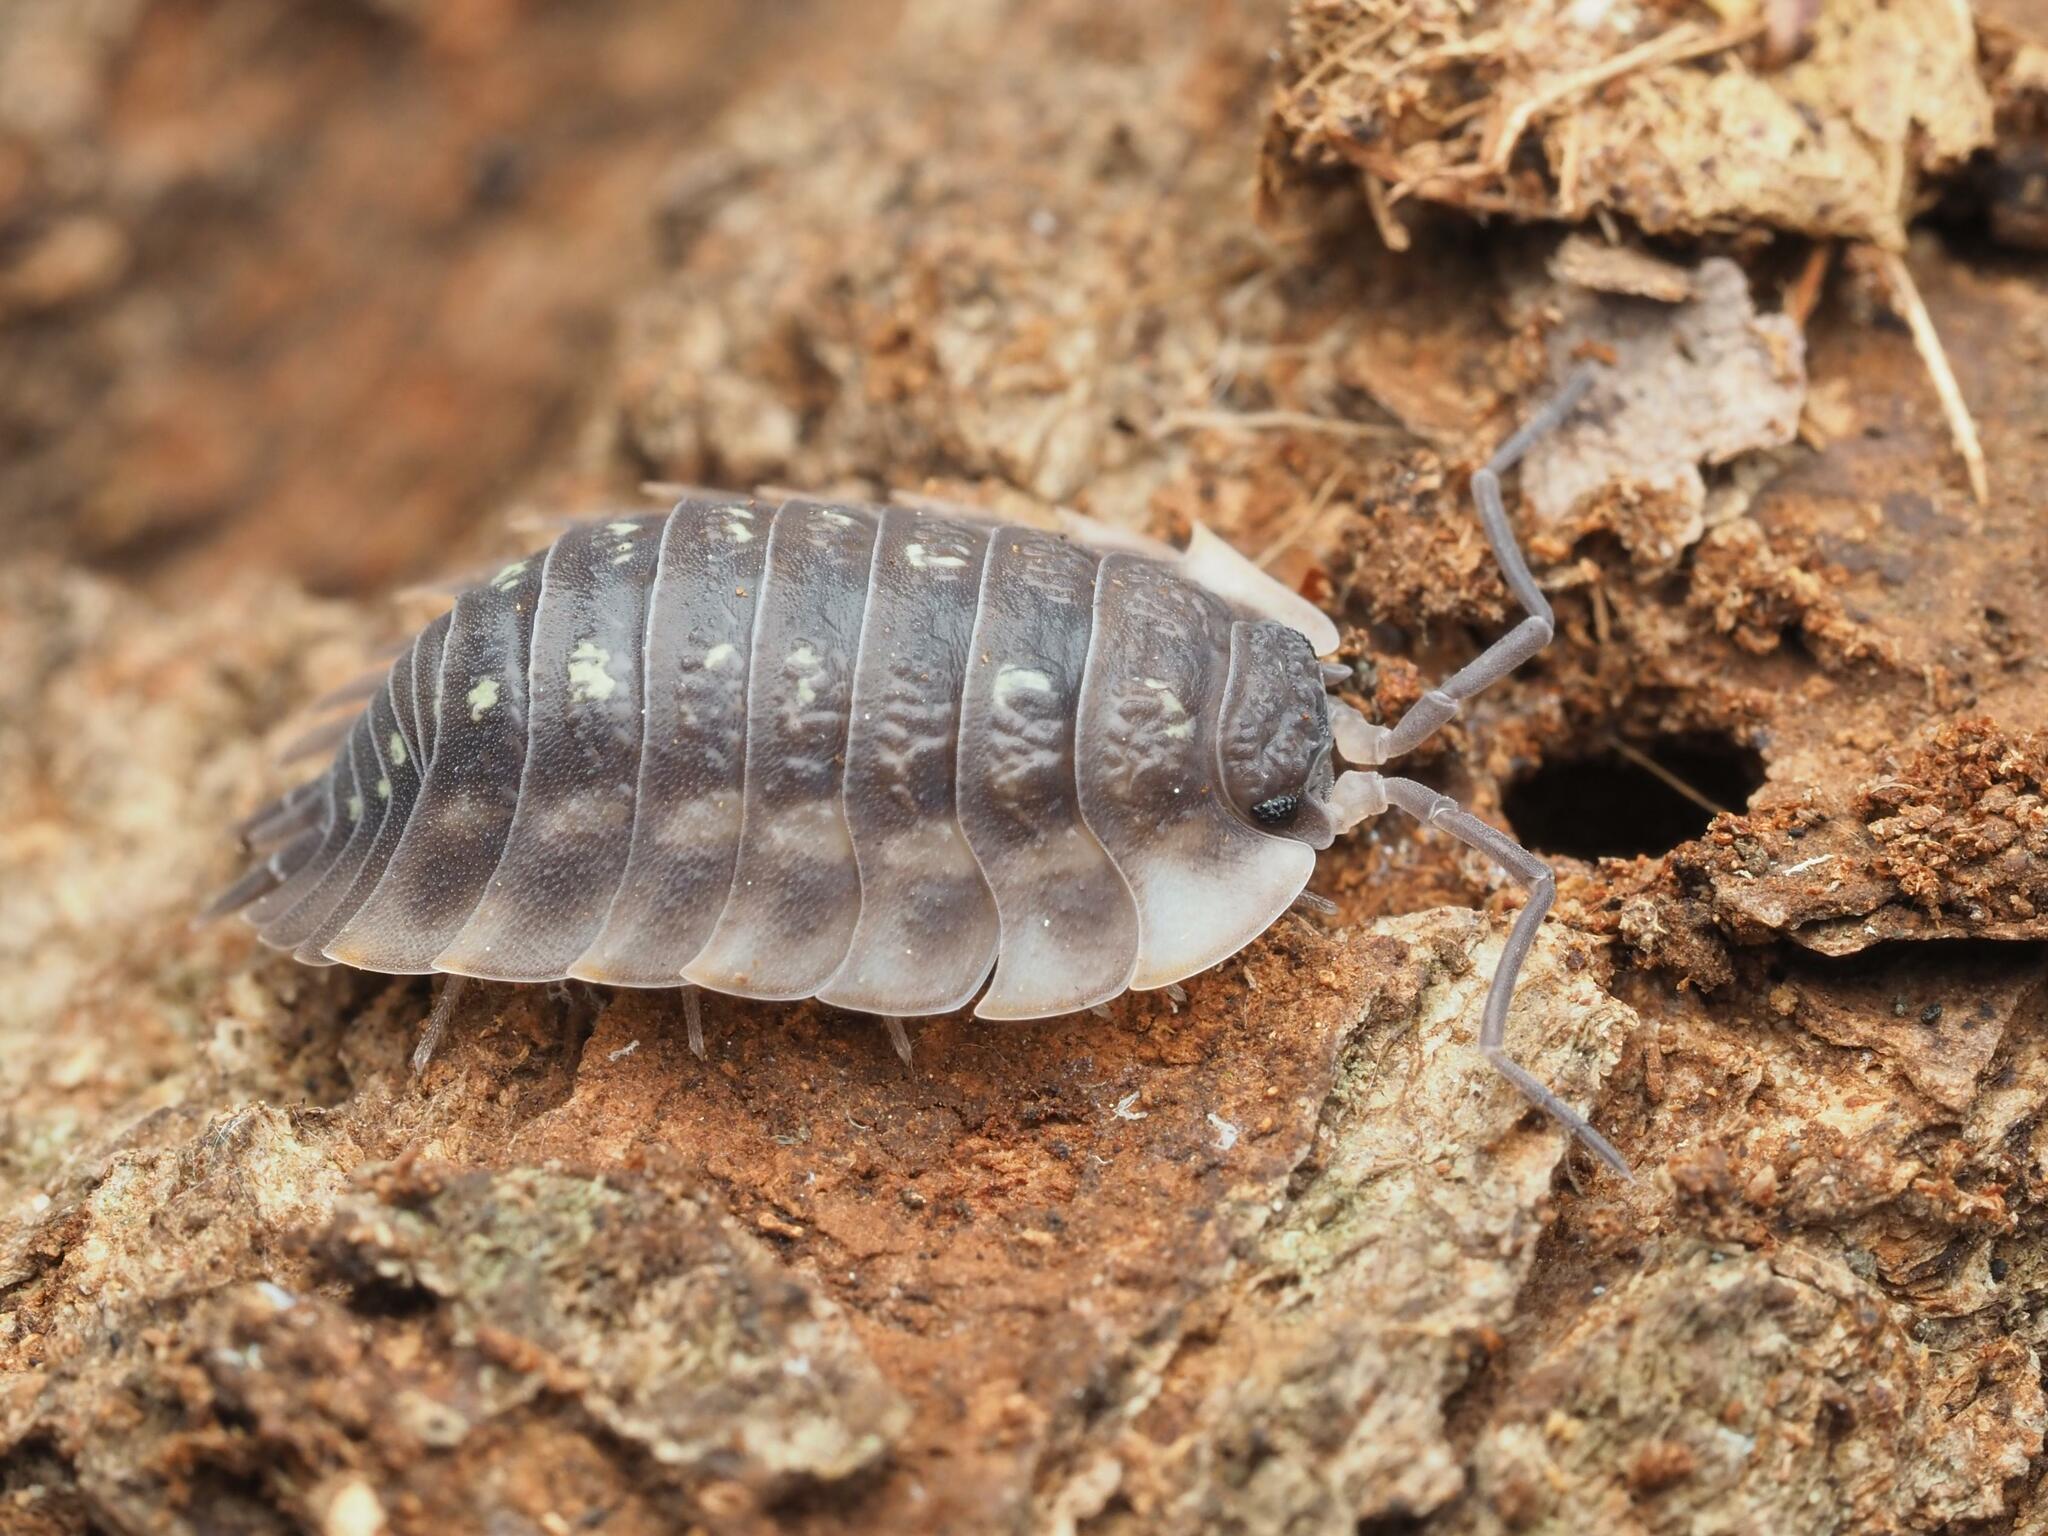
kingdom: Animalia
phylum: Arthropoda
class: Malacostraca
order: Isopoda
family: Oniscidae
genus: Oniscus
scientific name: Oniscus asellus
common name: Common shiny woodlouse
